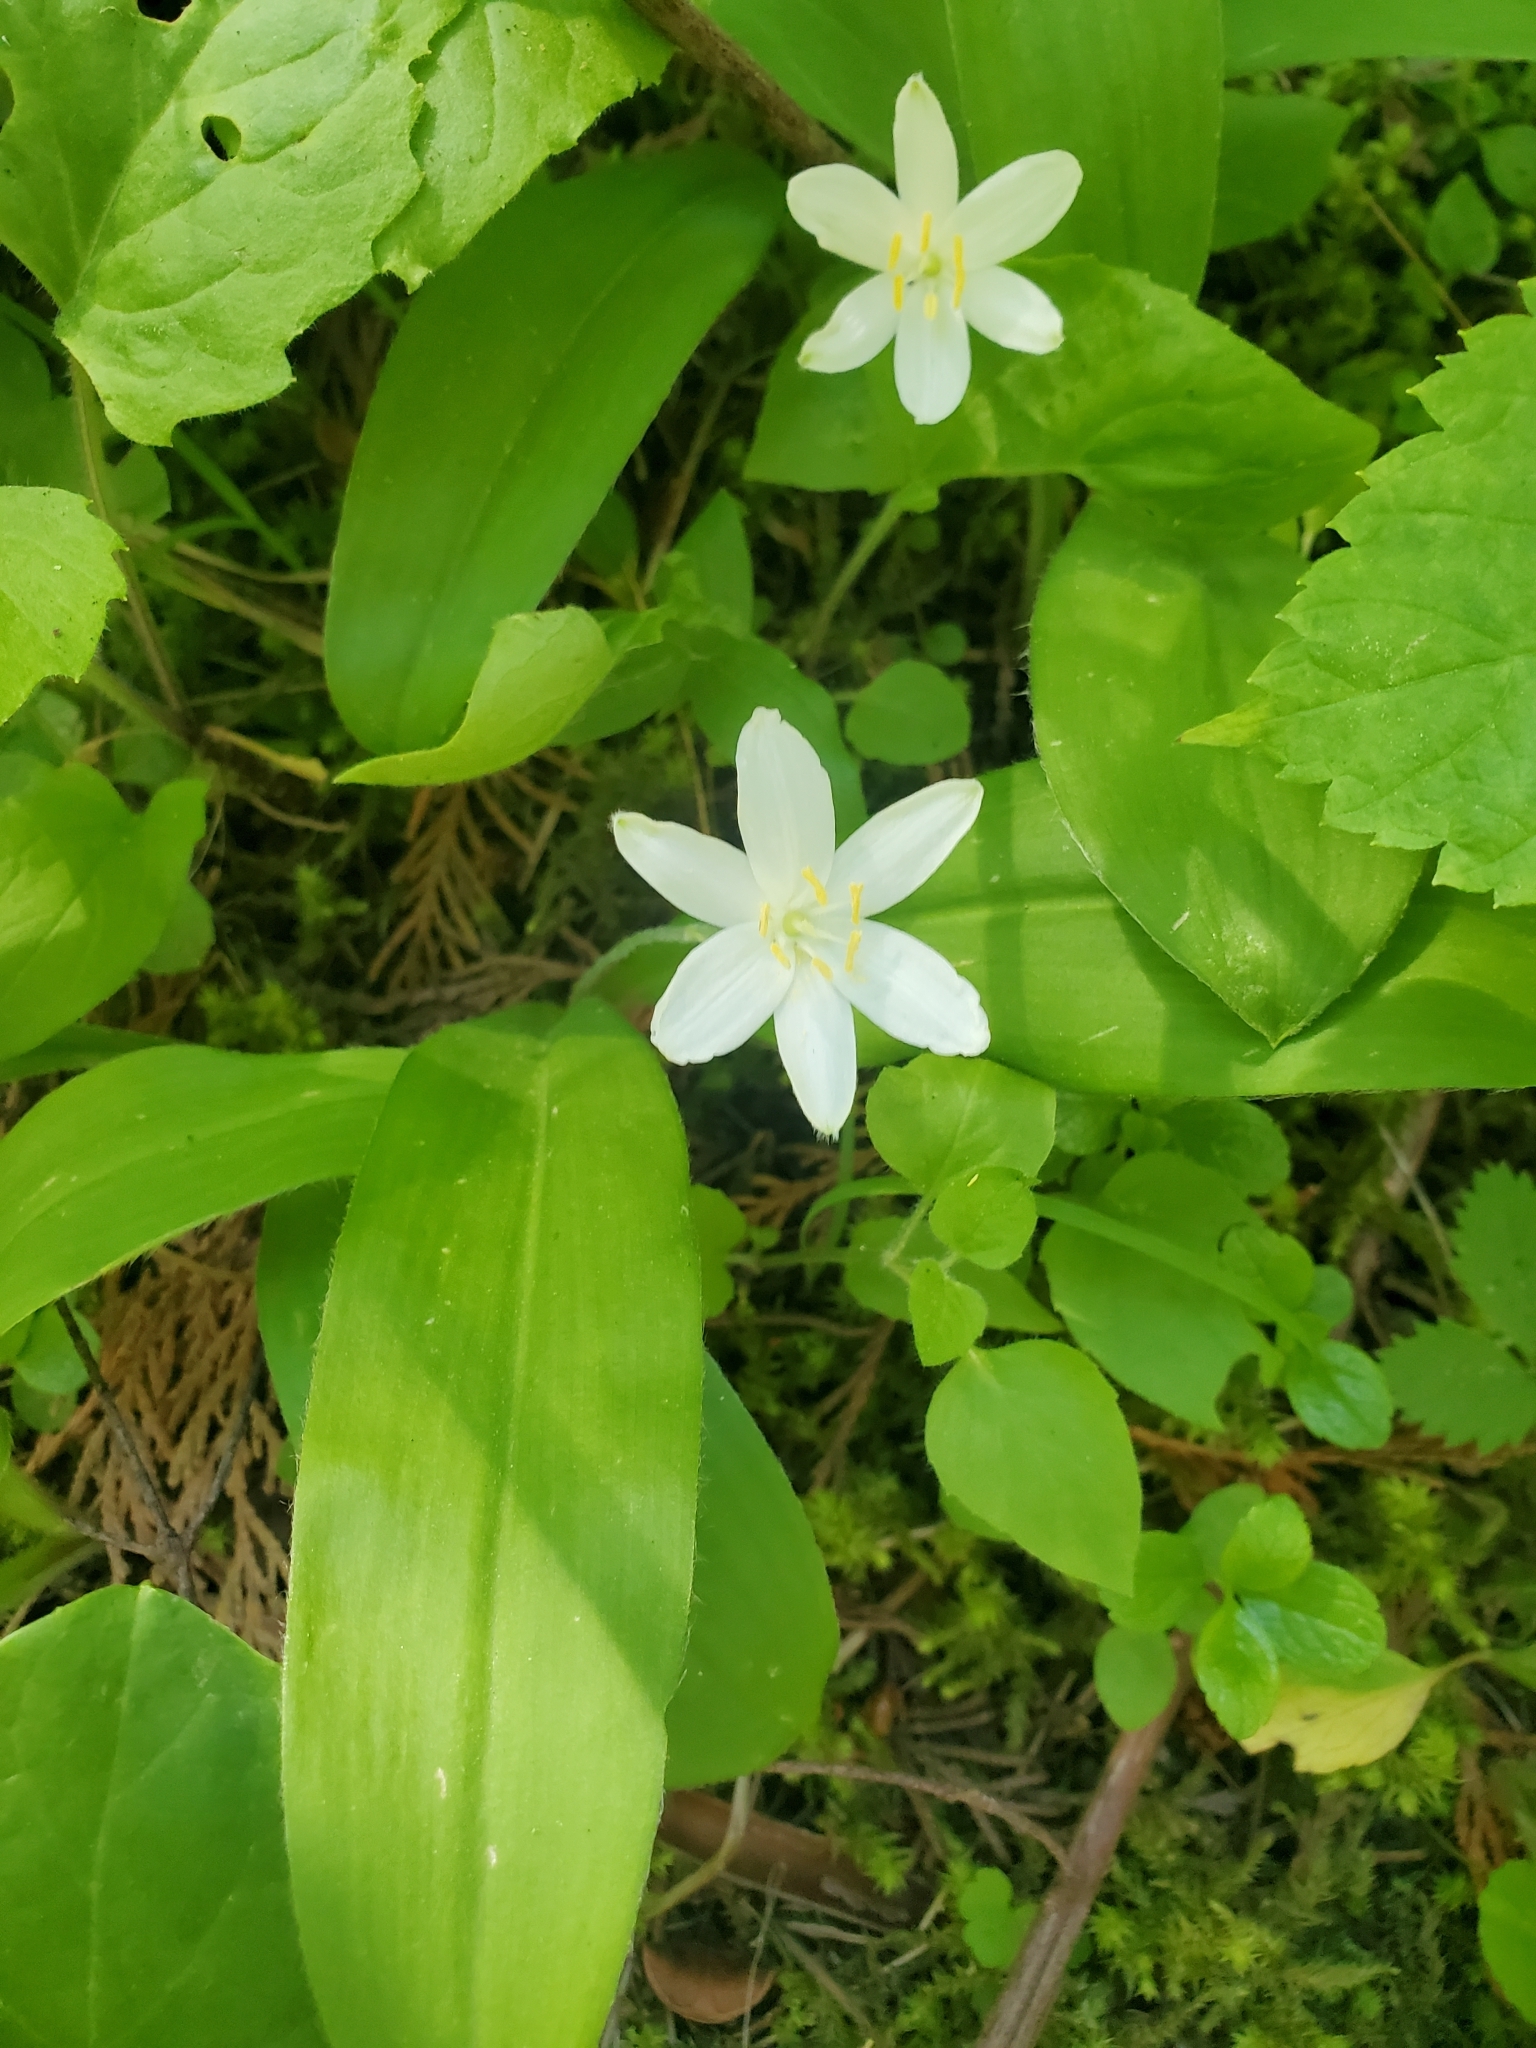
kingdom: Plantae
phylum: Tracheophyta
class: Liliopsida
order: Liliales
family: Liliaceae
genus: Clintonia
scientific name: Clintonia uniflora
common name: Queen's cup
